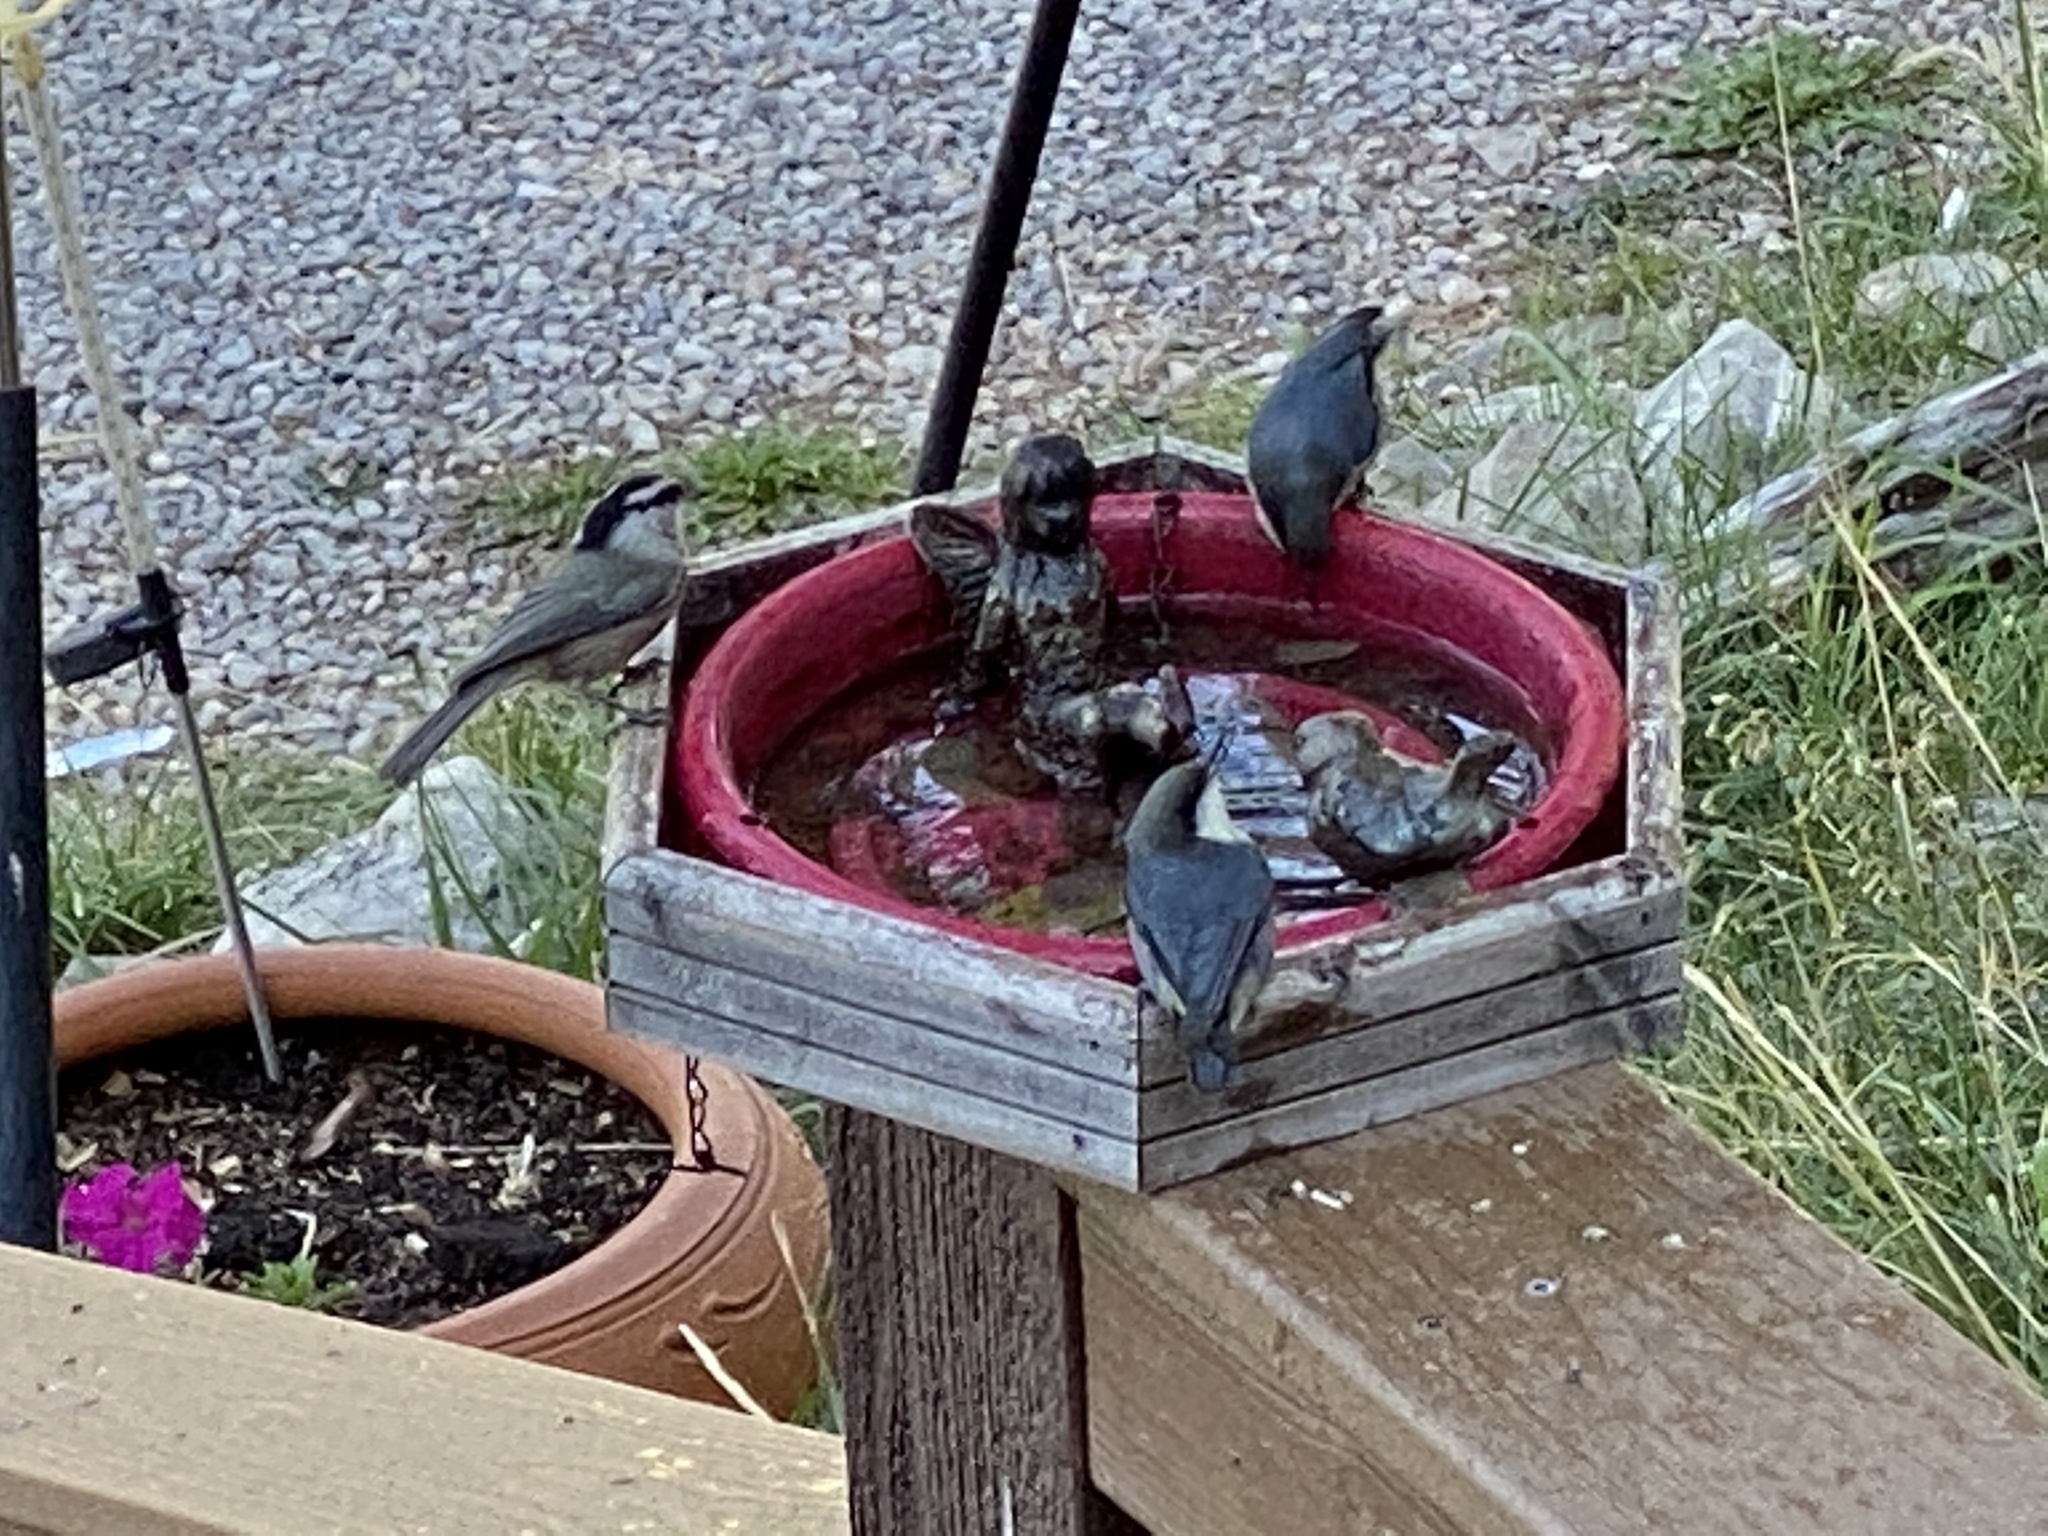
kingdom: Animalia
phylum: Chordata
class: Aves
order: Passeriformes
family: Paridae
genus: Poecile
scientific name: Poecile gambeli
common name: Mountain chickadee
